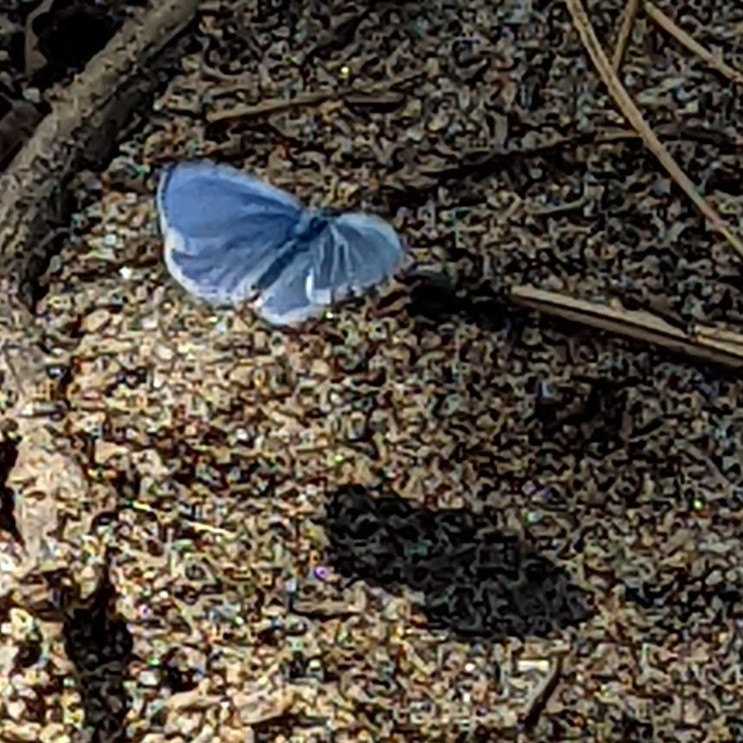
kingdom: Animalia
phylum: Arthropoda
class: Insecta
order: Lepidoptera
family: Lycaenidae
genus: Celastrina
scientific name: Celastrina ladon
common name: Spring azure
